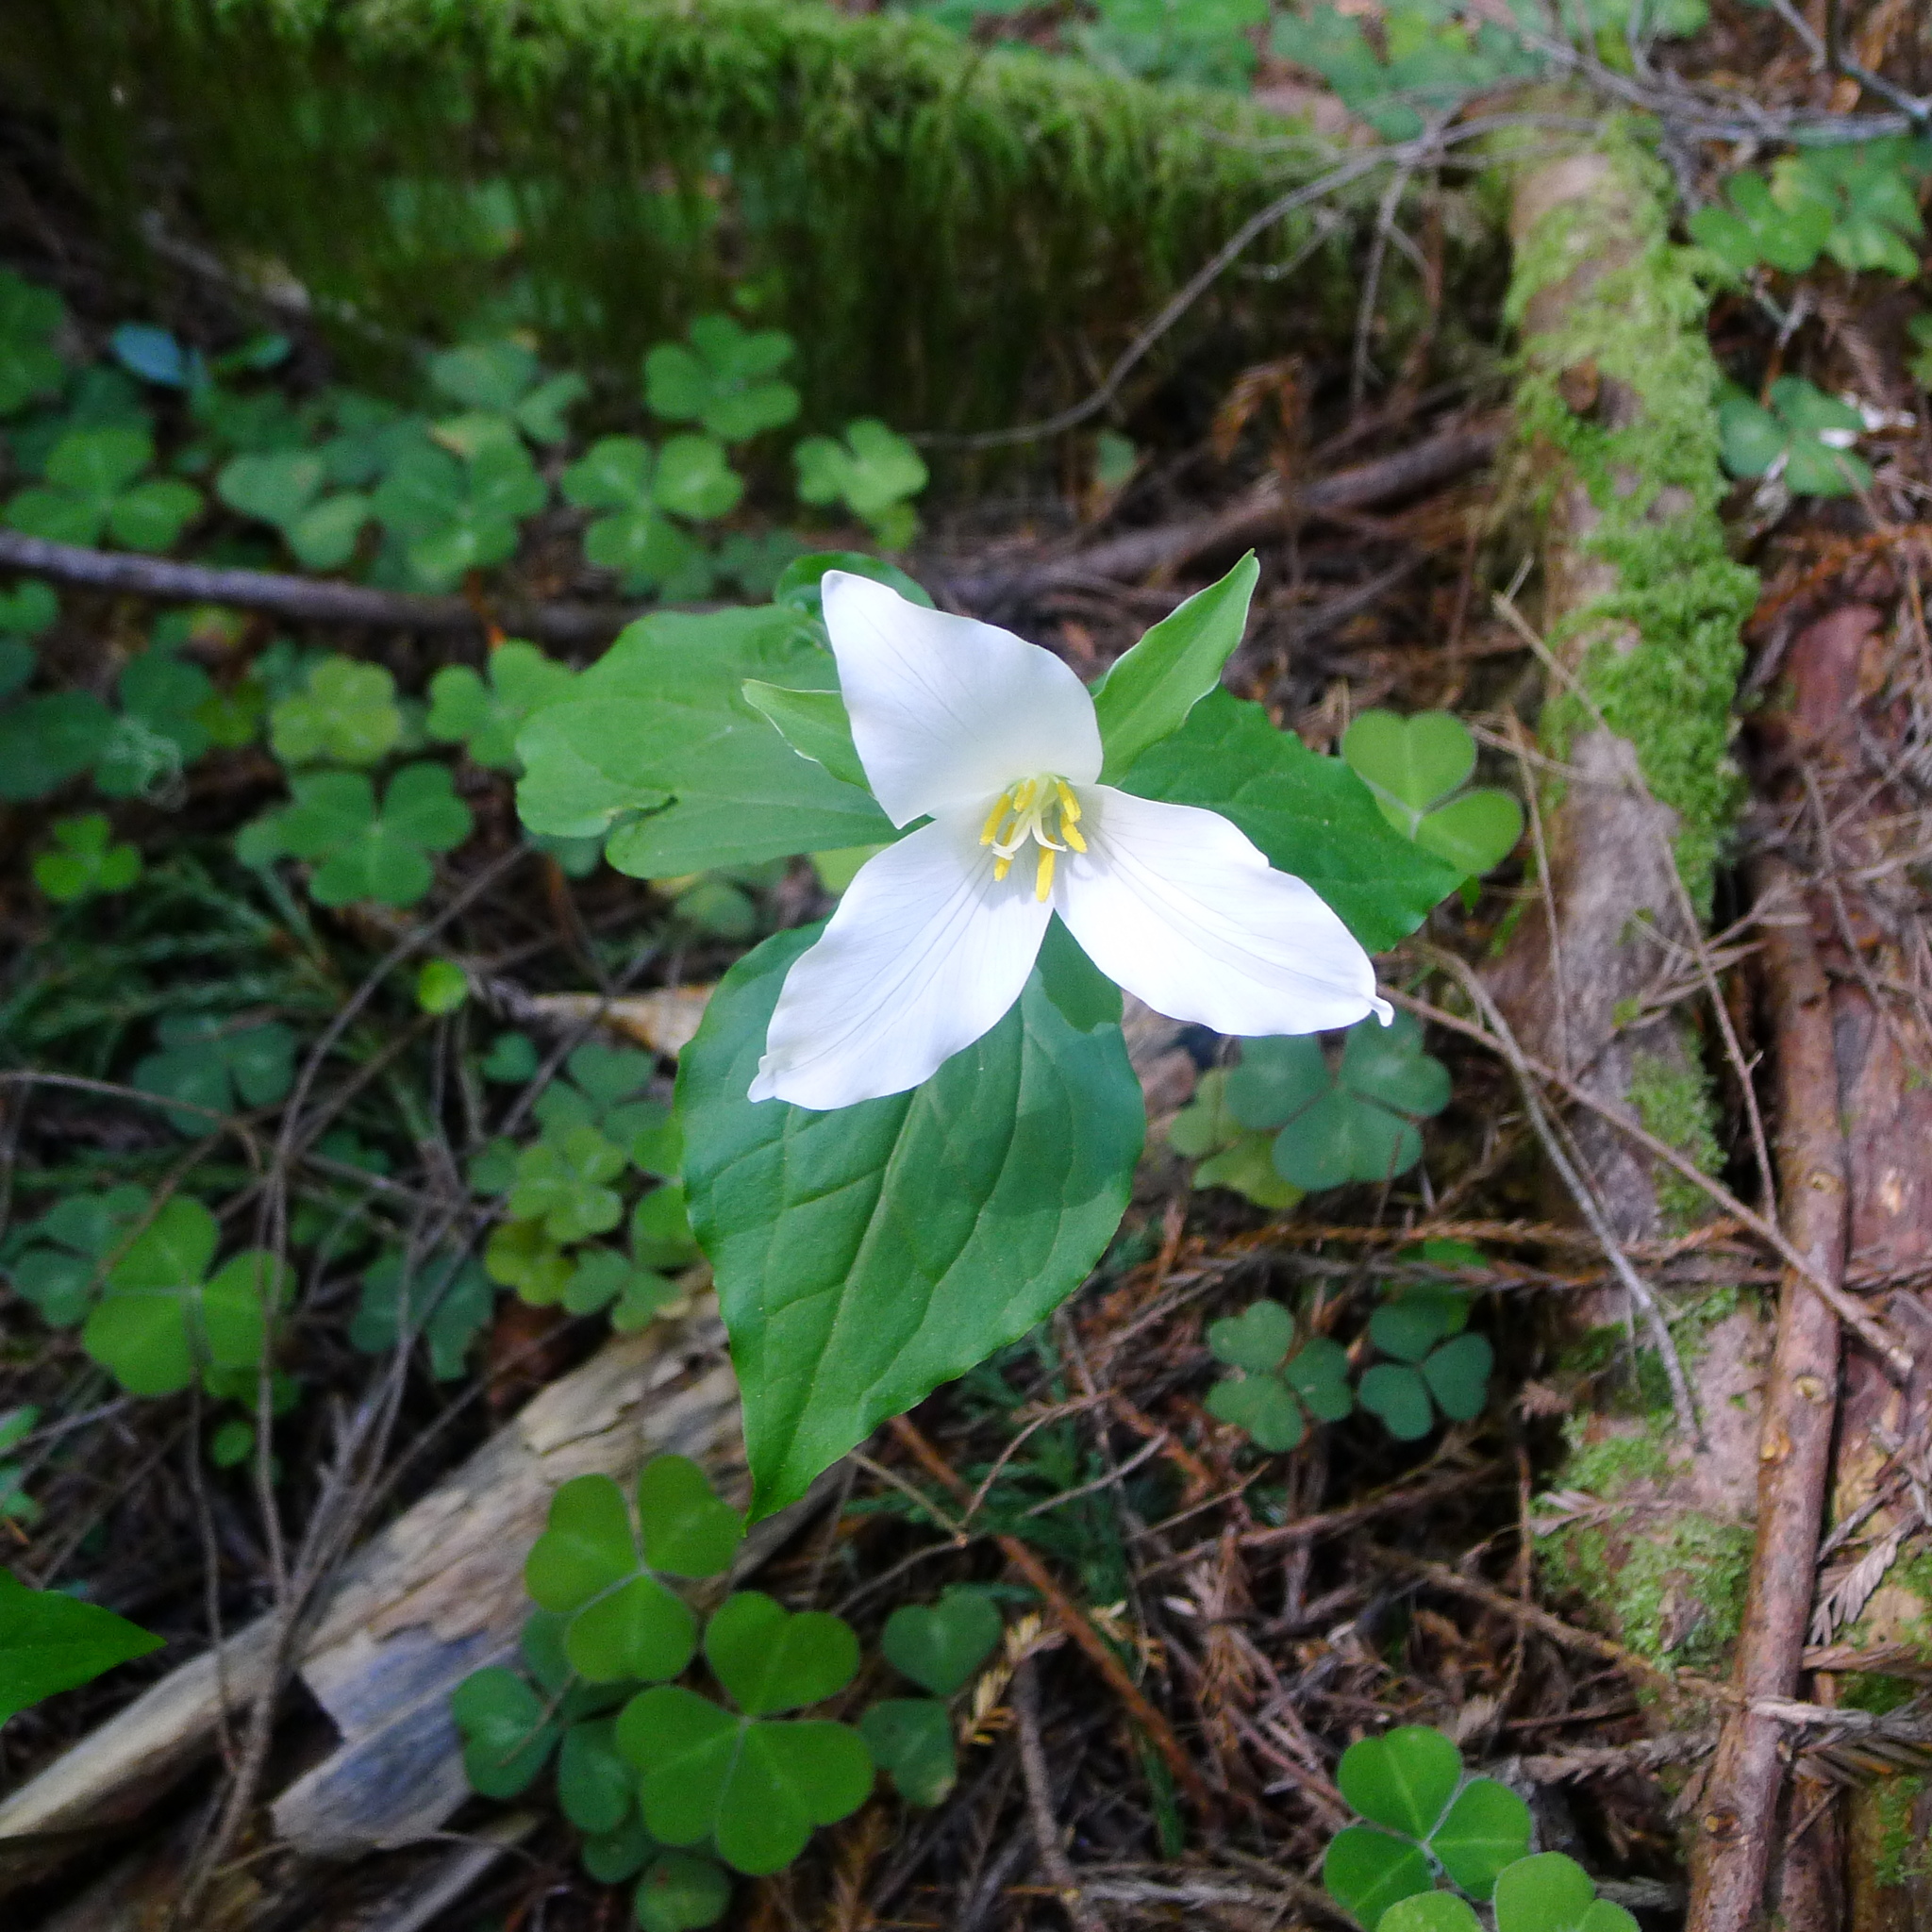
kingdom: Plantae
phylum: Tracheophyta
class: Liliopsida
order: Liliales
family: Melanthiaceae
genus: Trillium
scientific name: Trillium ovatum
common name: Pacific trillium
